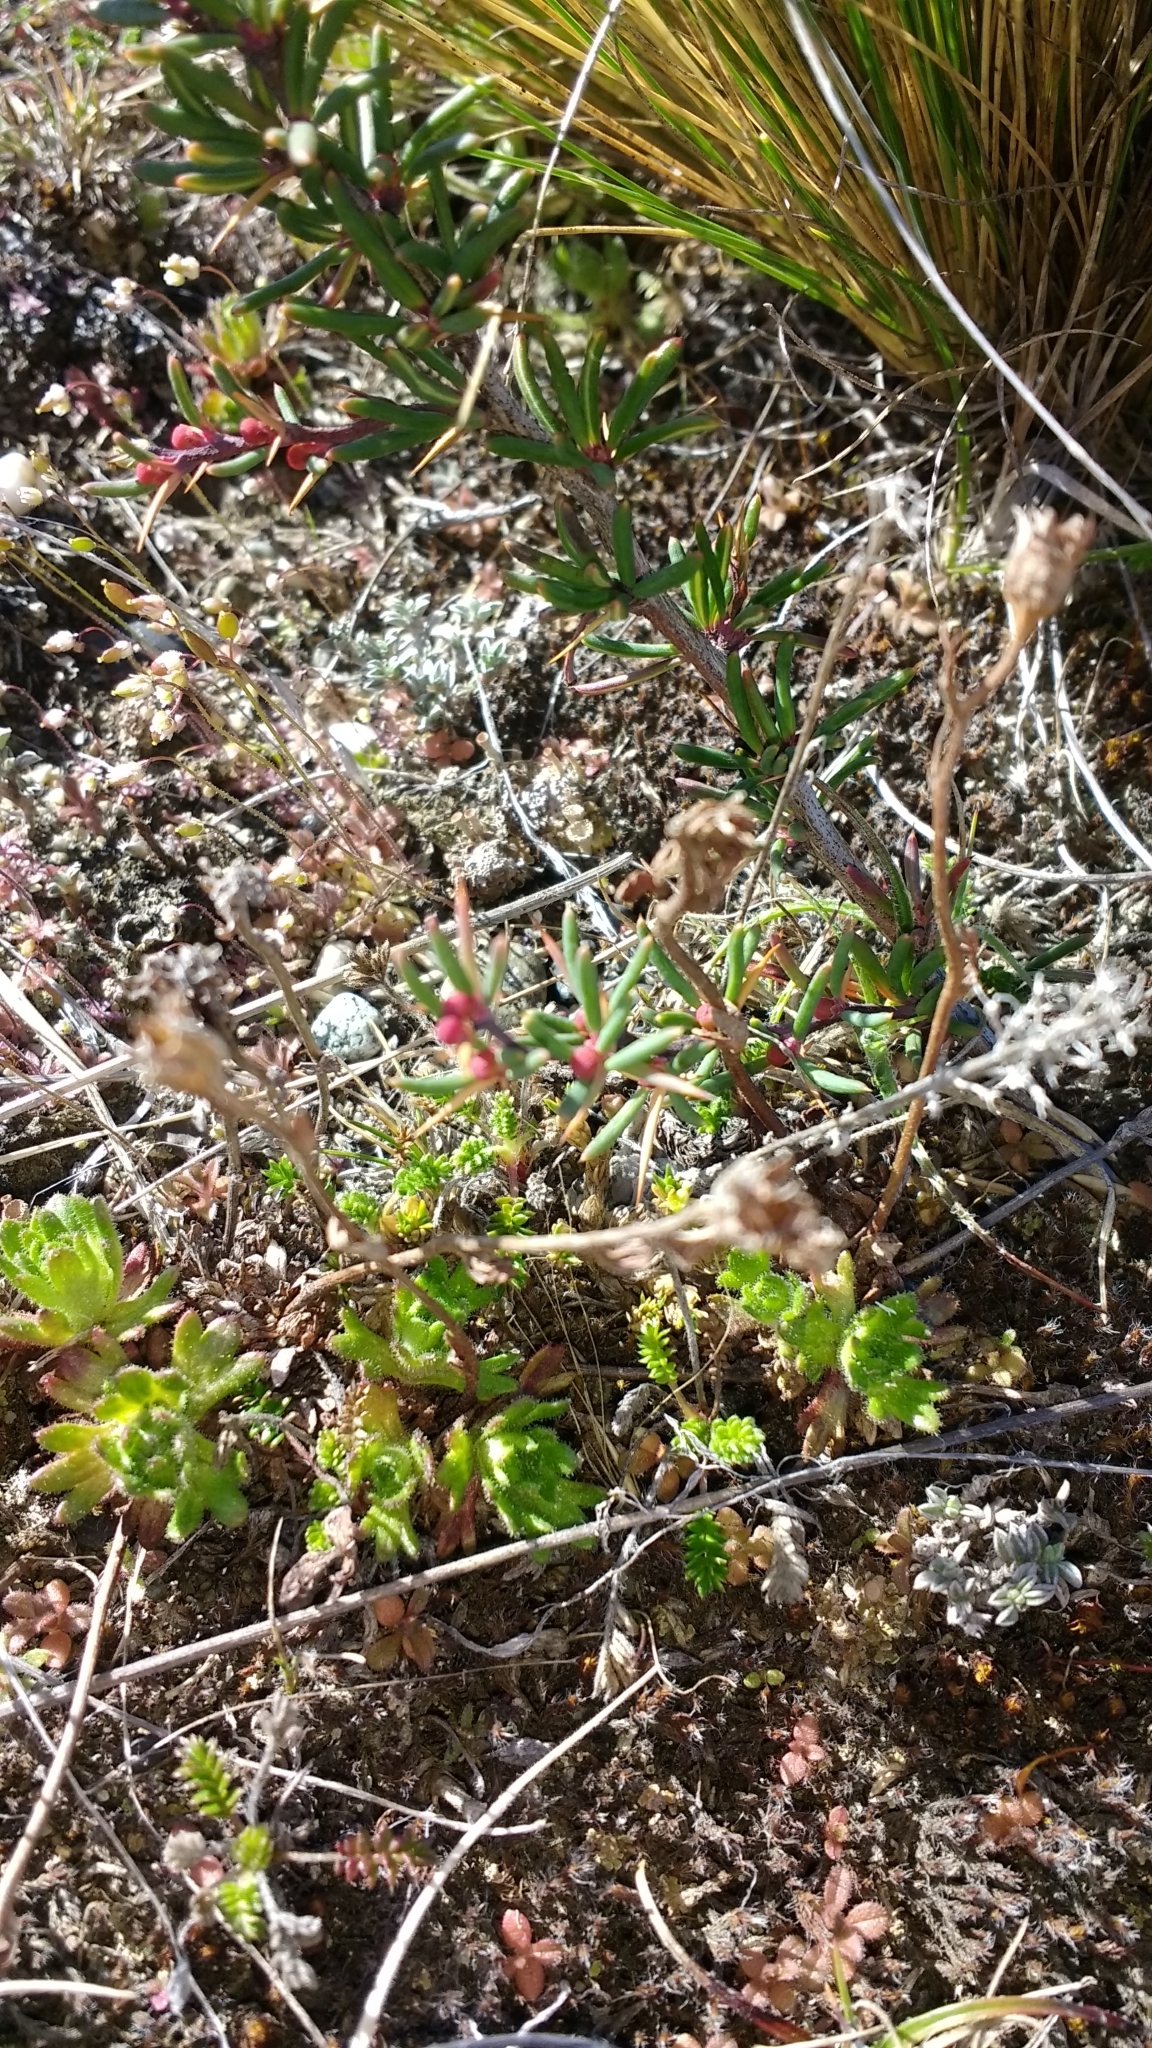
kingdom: Plantae
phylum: Tracheophyta
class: Magnoliopsida
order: Ranunculales
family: Berberidaceae
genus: Berberis
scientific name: Berberis empetrifolia
